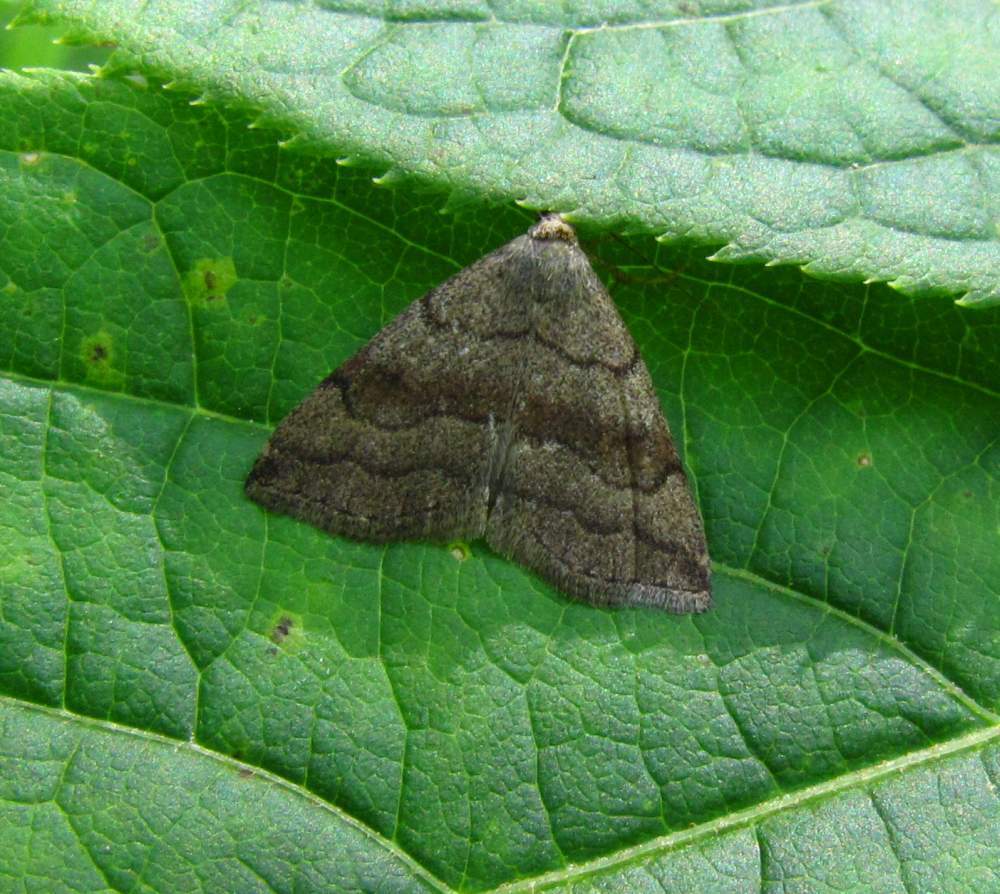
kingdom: Animalia
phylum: Arthropoda
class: Insecta
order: Lepidoptera
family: Erebidae
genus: Phalaenostola
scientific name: Phalaenostola metonalis
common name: Pale phalaenostola moth
